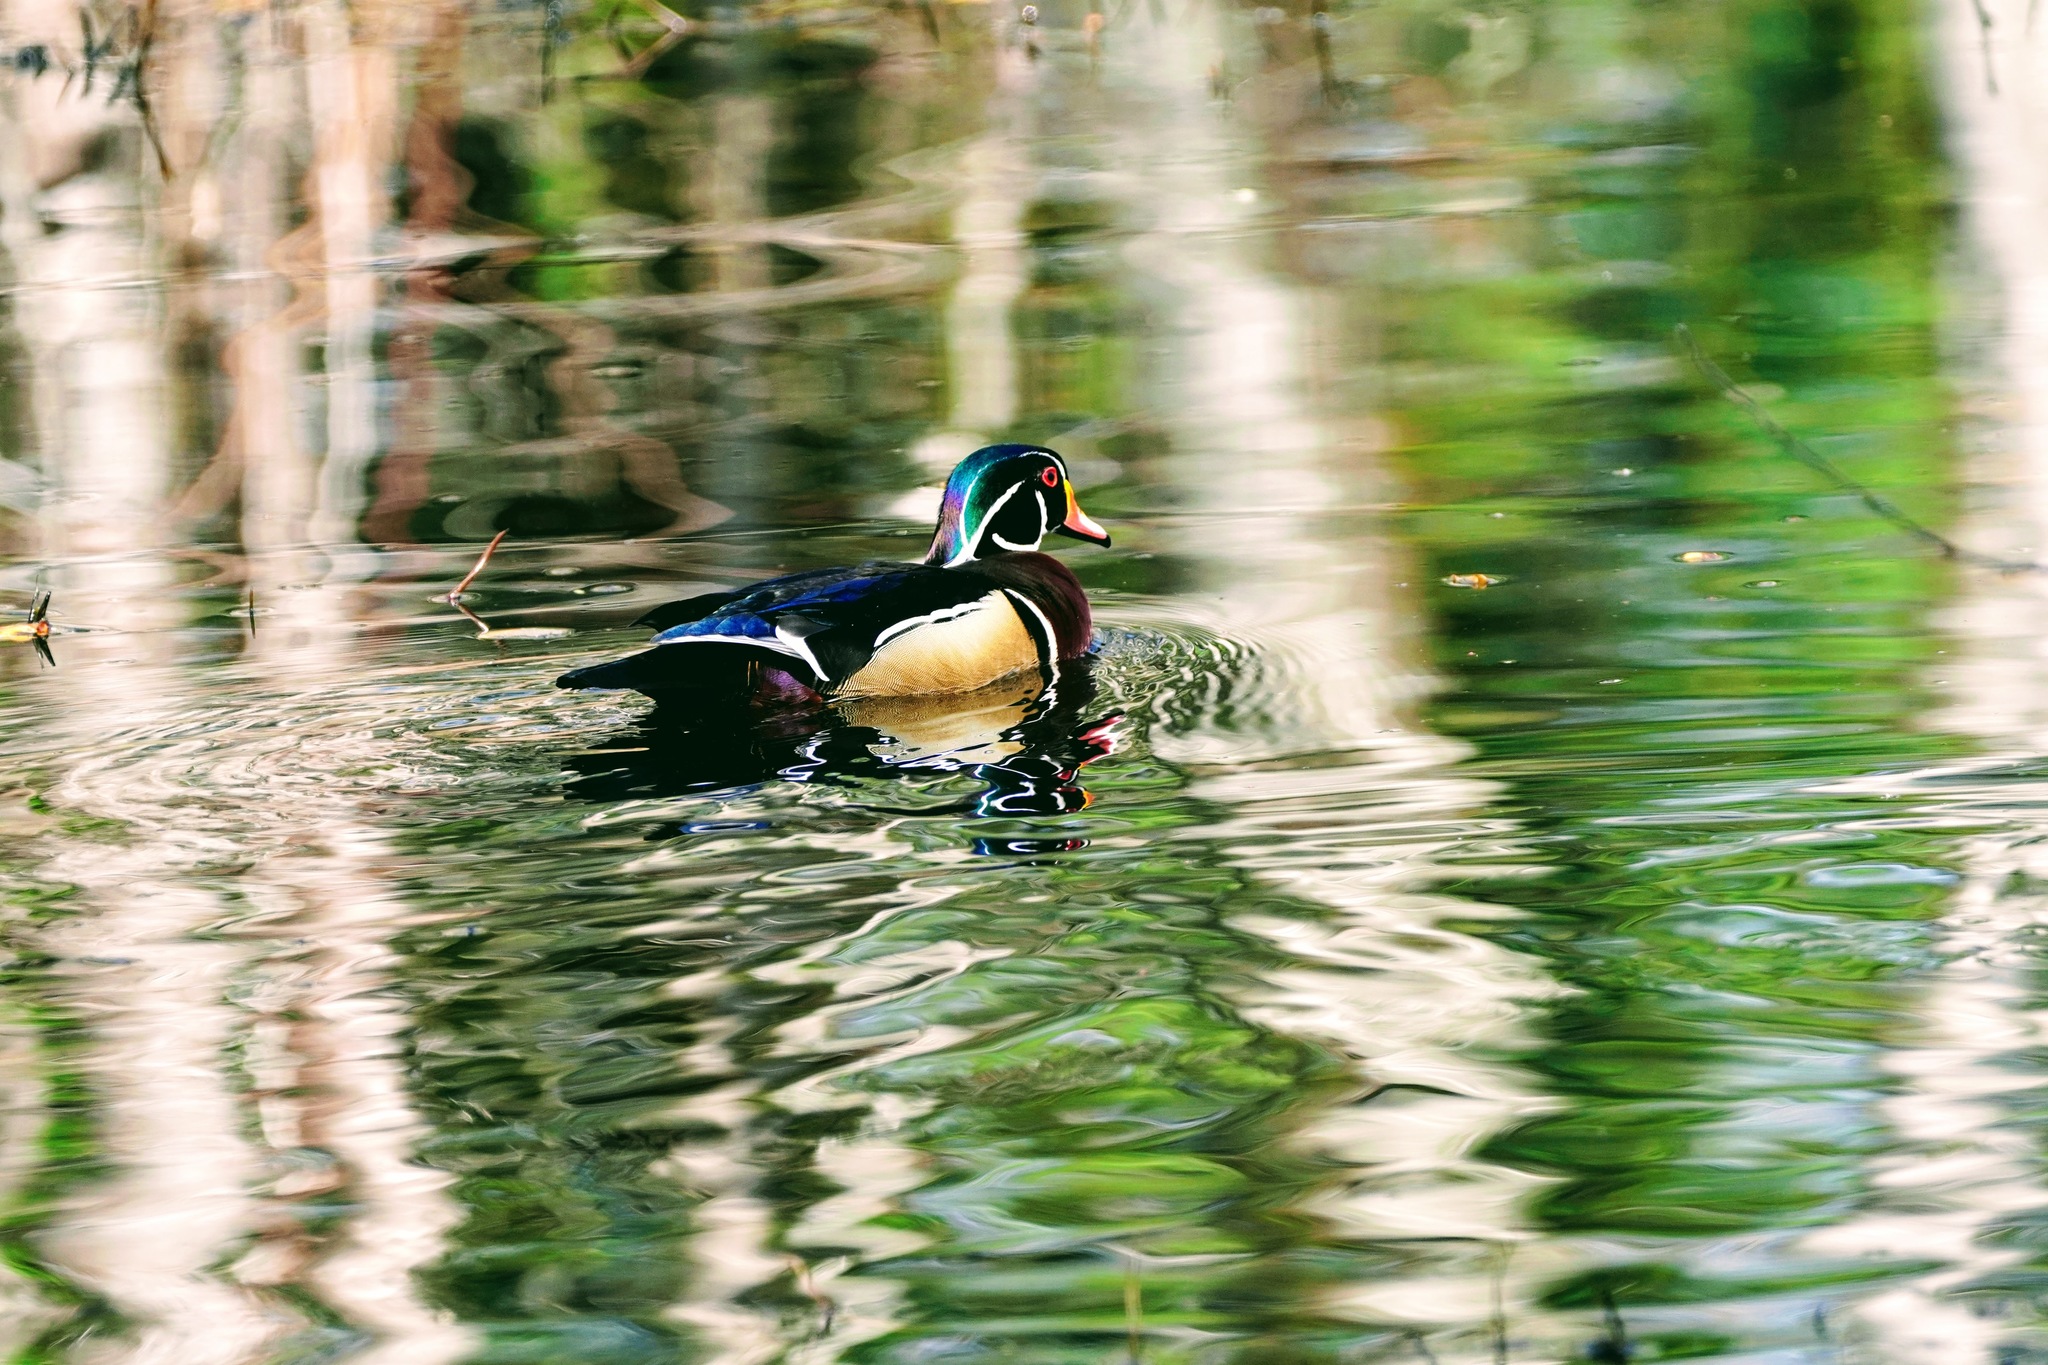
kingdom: Animalia
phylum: Chordata
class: Aves
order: Anseriformes
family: Anatidae
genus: Aix
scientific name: Aix sponsa
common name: Wood duck
